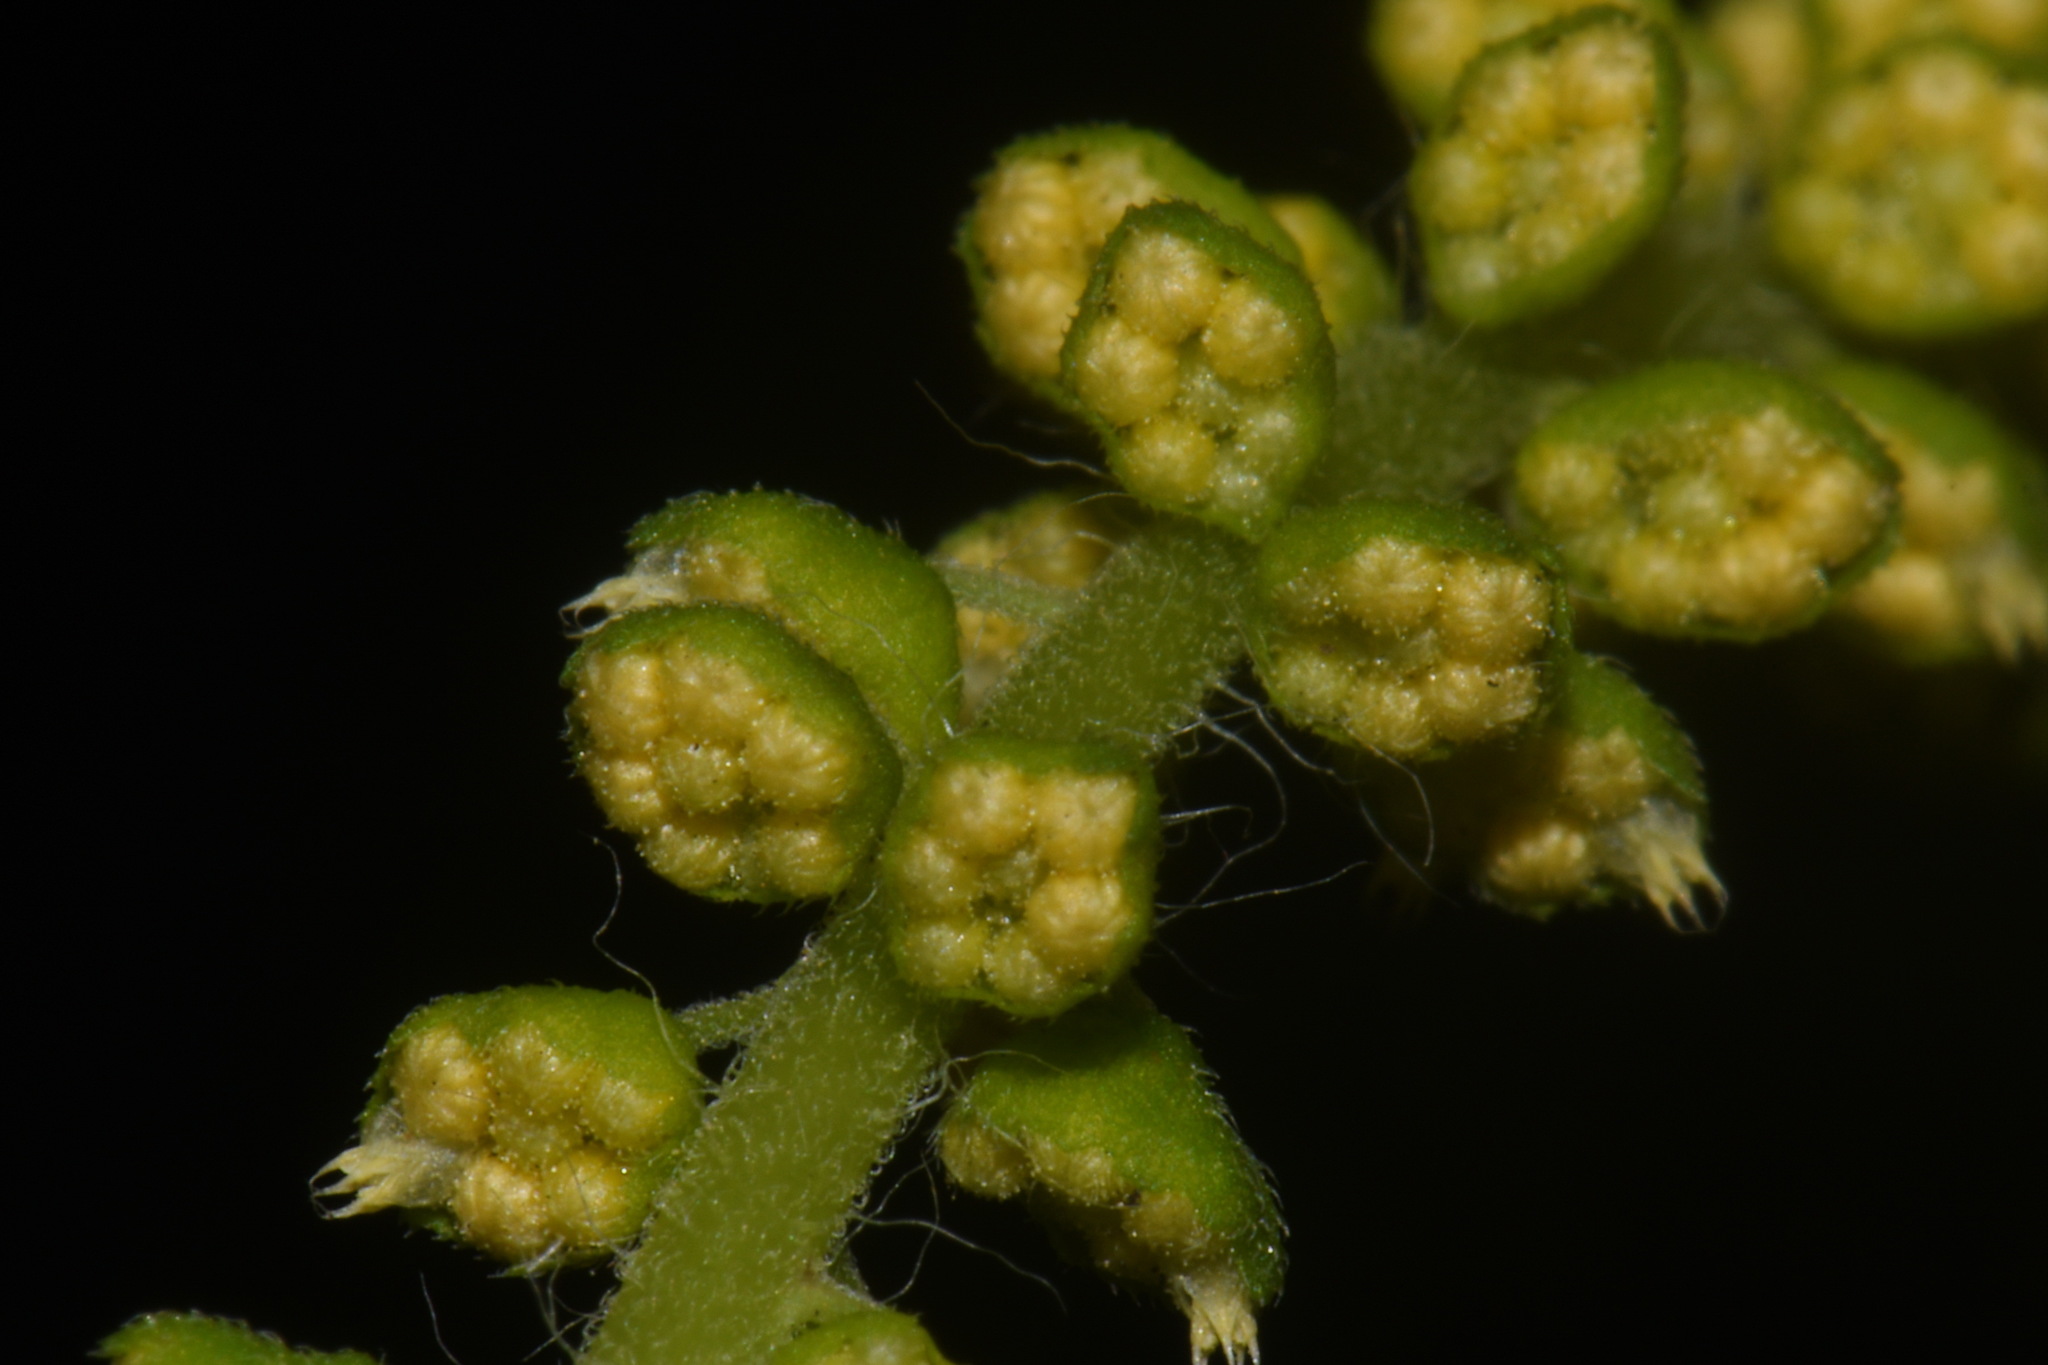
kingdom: Plantae
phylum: Tracheophyta
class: Magnoliopsida
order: Asterales
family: Asteraceae
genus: Ambrosia
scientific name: Ambrosia artemisiifolia
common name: Annual ragweed
